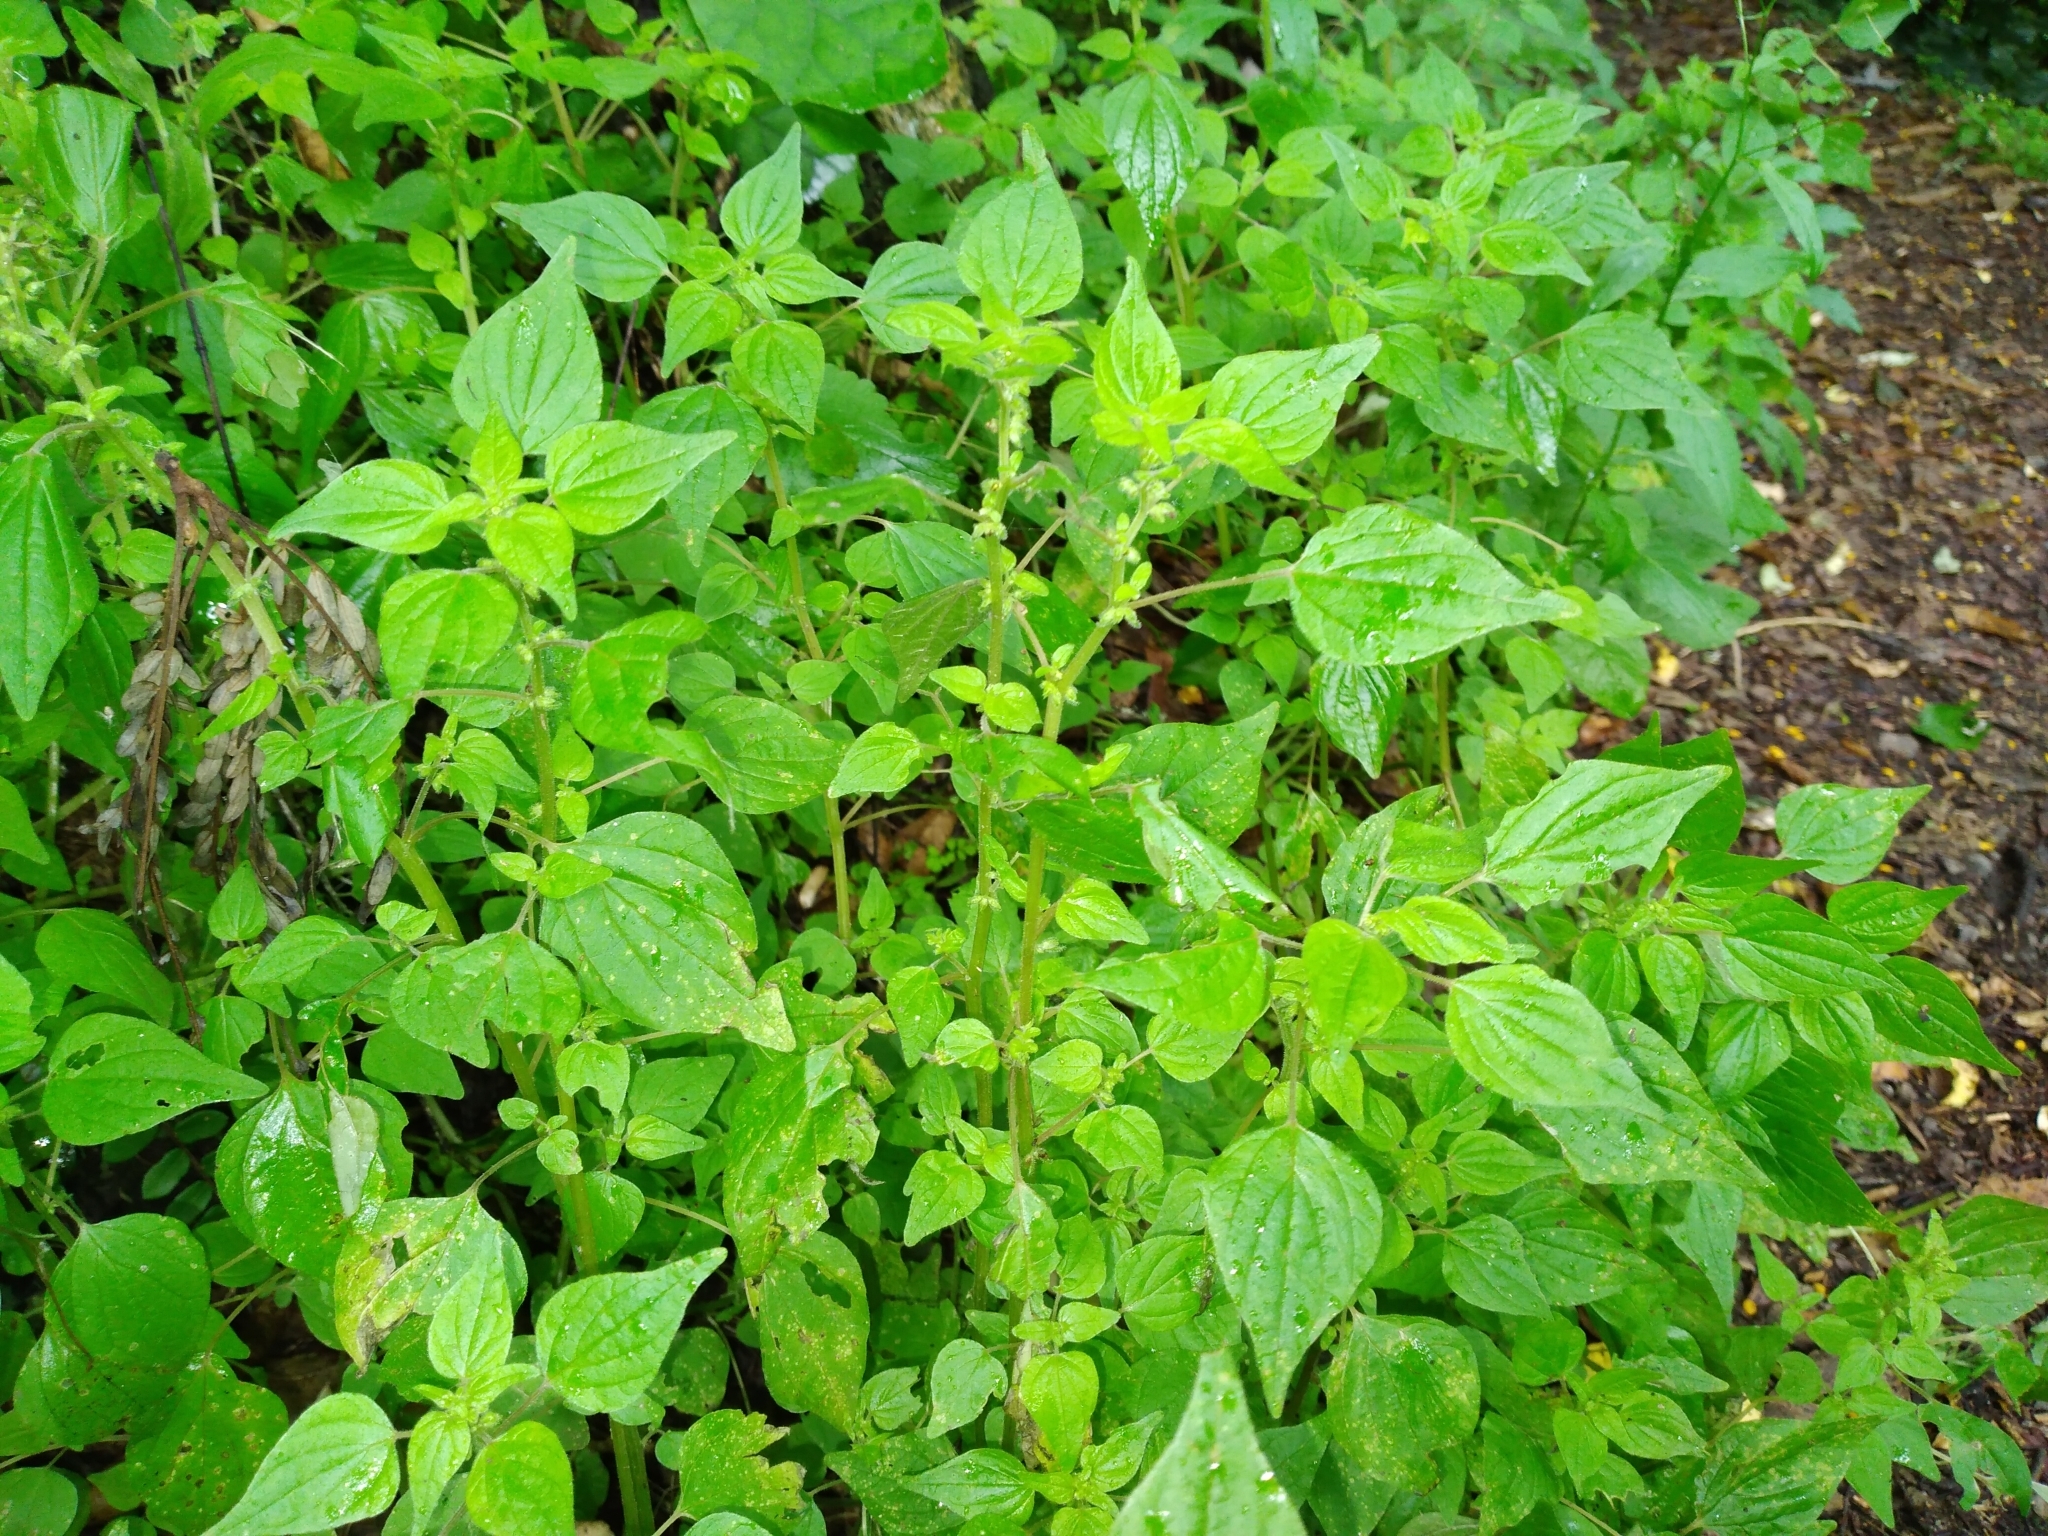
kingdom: Plantae
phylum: Tracheophyta
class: Magnoliopsida
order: Rosales
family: Urticaceae
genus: Parietaria
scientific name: Parietaria debilis
